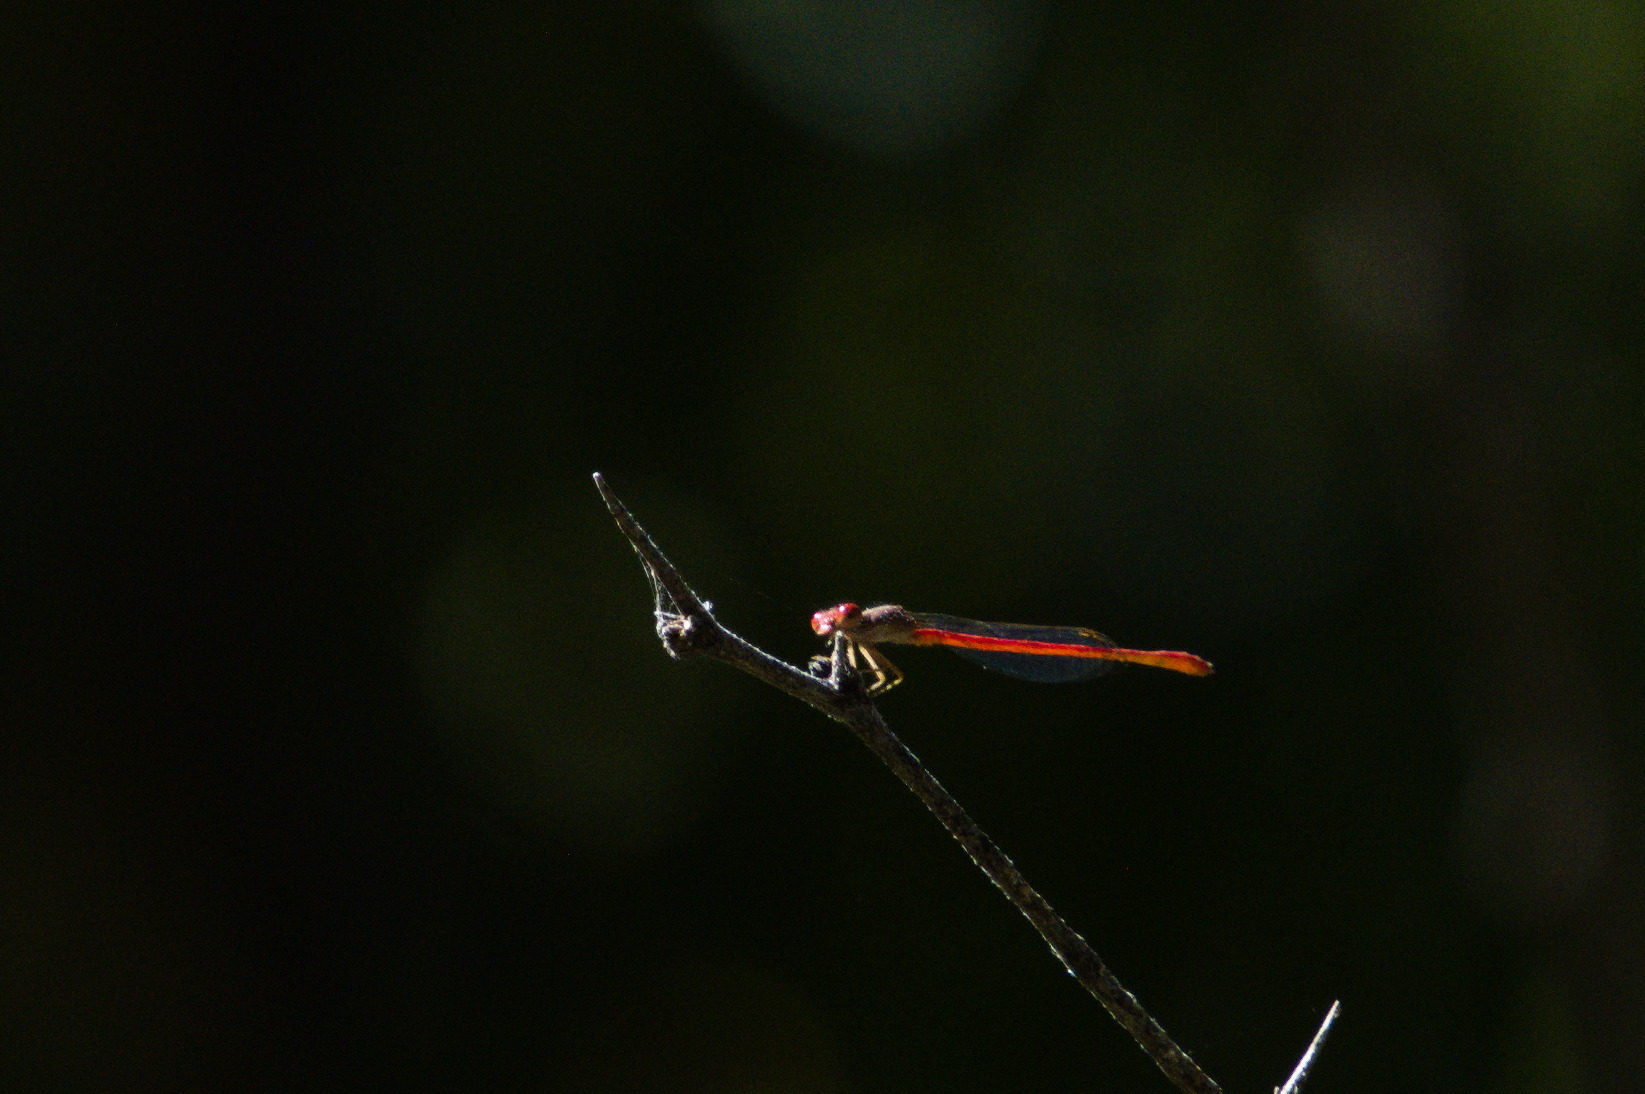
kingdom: Animalia
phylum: Arthropoda
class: Insecta
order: Odonata
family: Coenagrionidae
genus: Telebasis
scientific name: Telebasis salva
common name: Desert firetail
